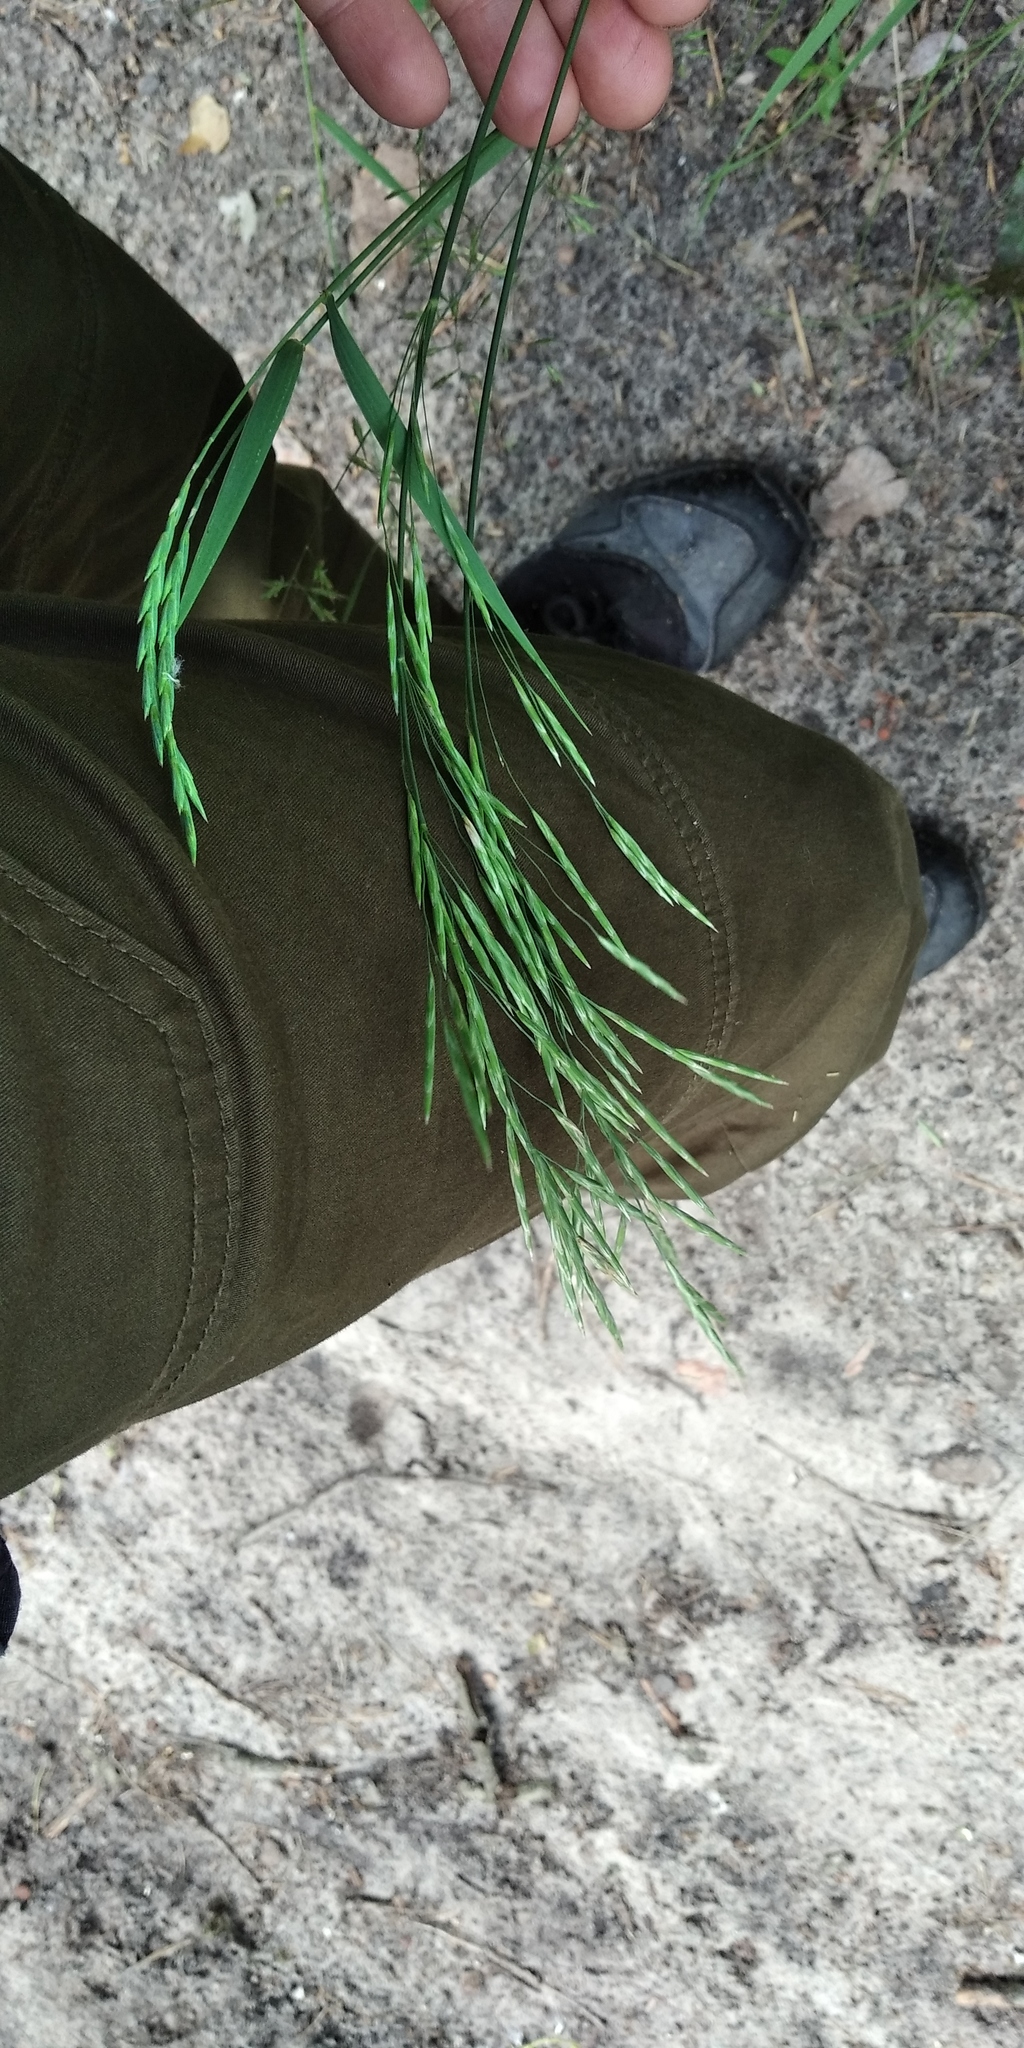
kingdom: Plantae
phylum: Tracheophyta
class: Liliopsida
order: Poales
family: Poaceae
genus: Bromus
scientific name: Bromus inermis
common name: Smooth brome
